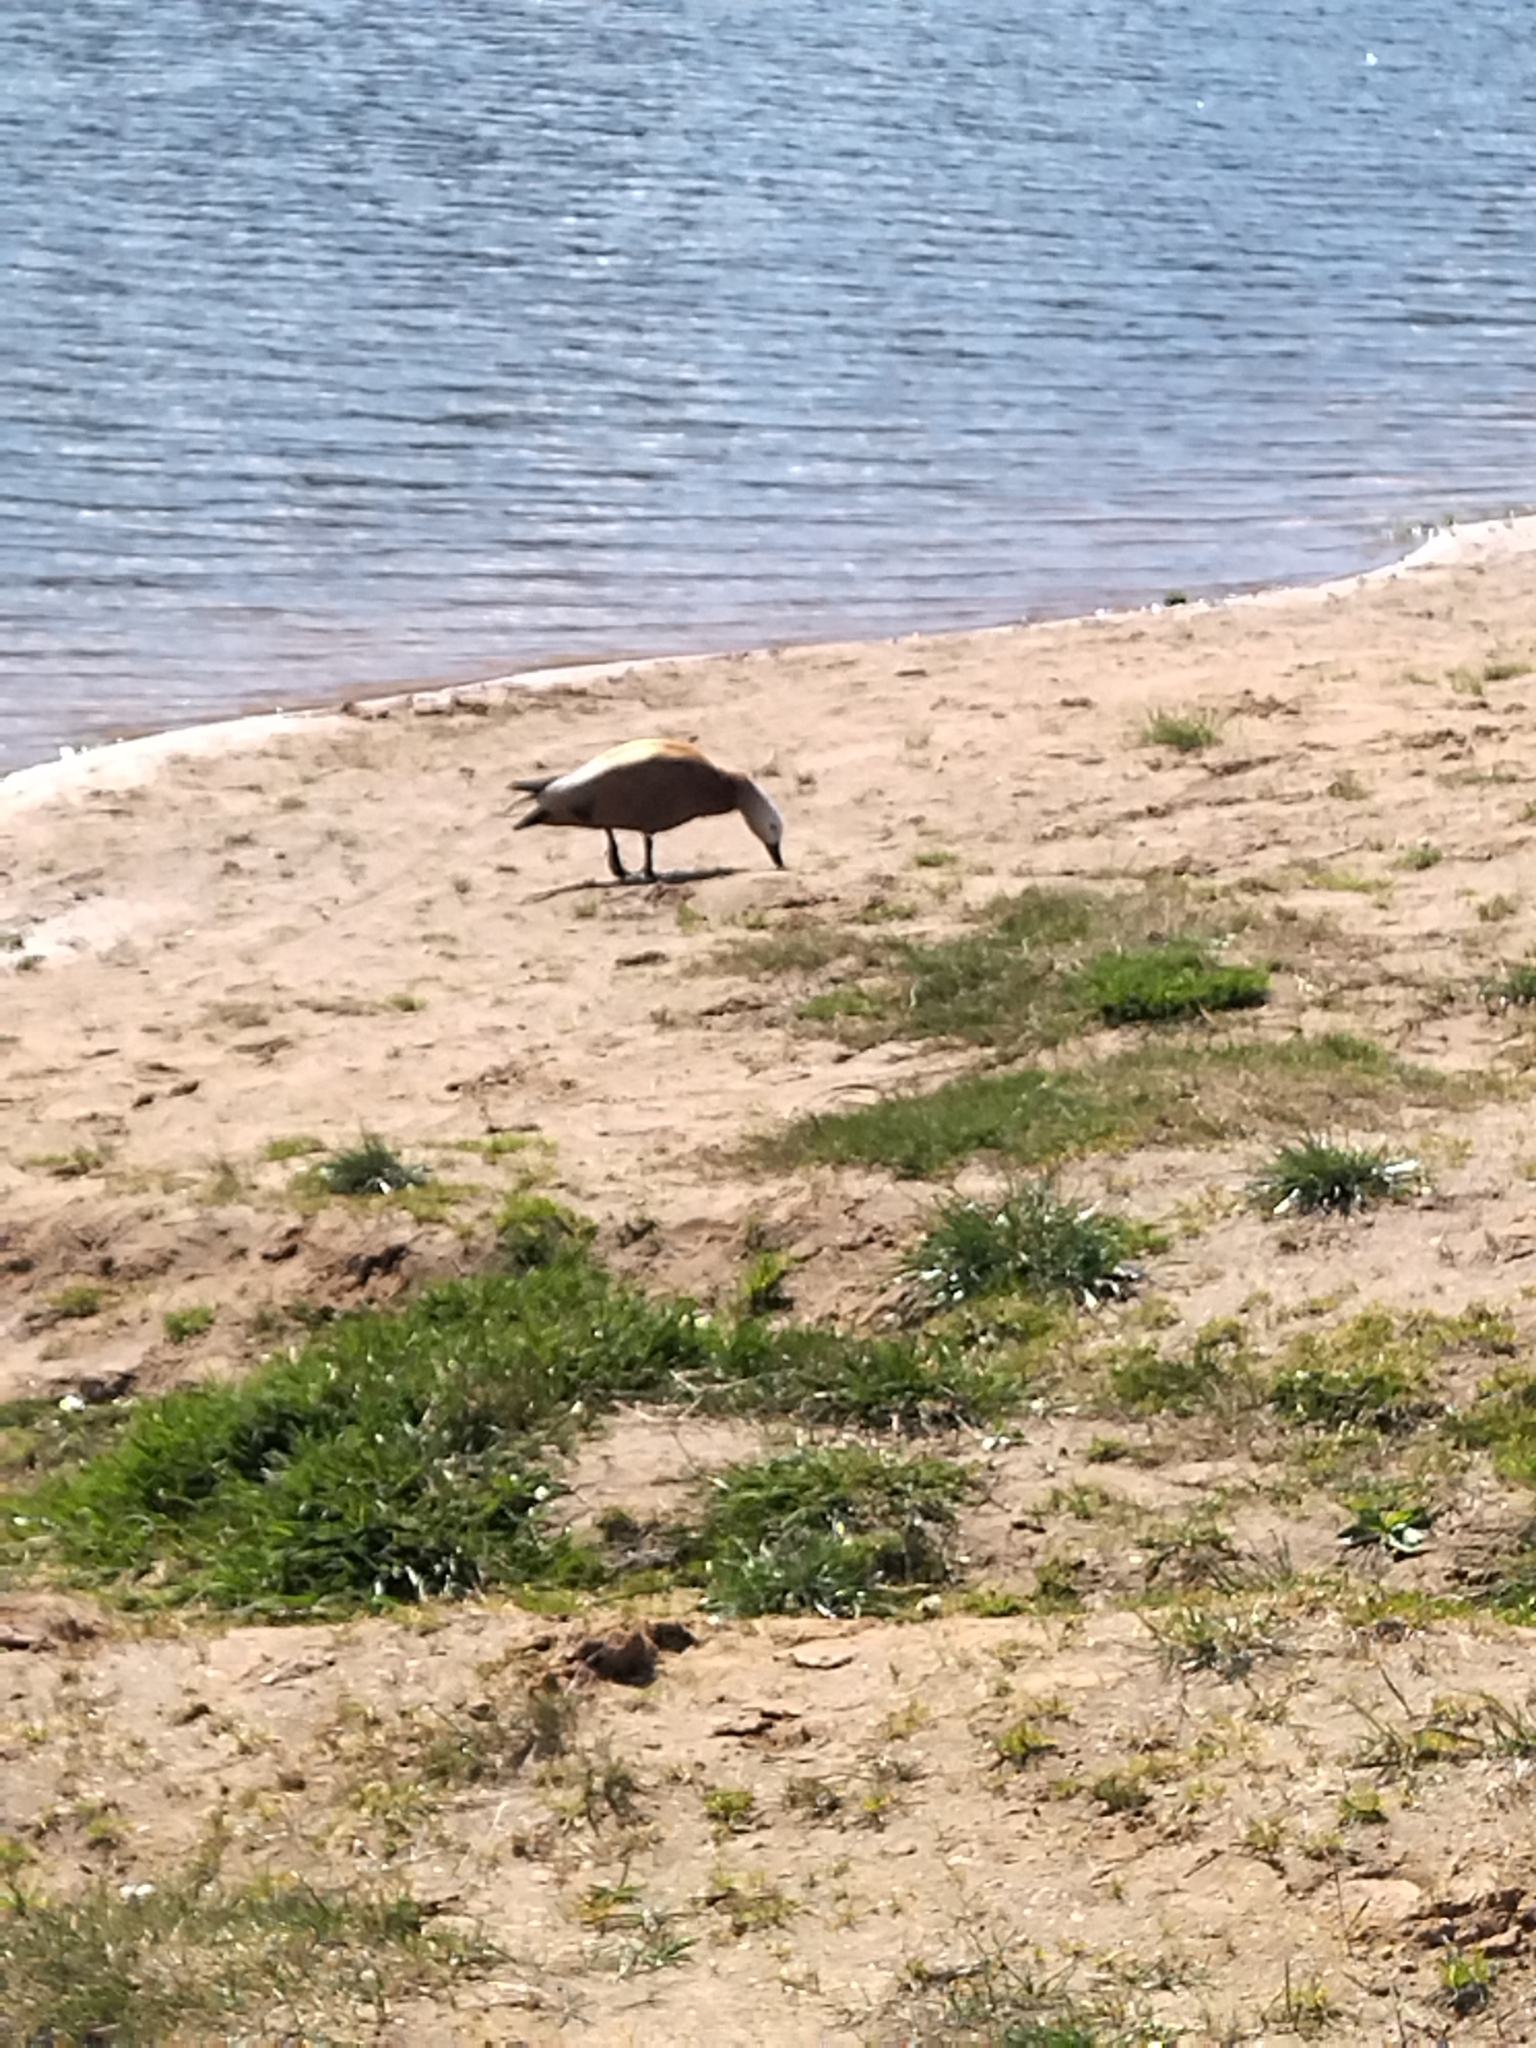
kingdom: Animalia
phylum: Chordata
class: Aves
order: Anseriformes
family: Anatidae
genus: Tadorna
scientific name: Tadorna ferruginea
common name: Ruddy shelduck
